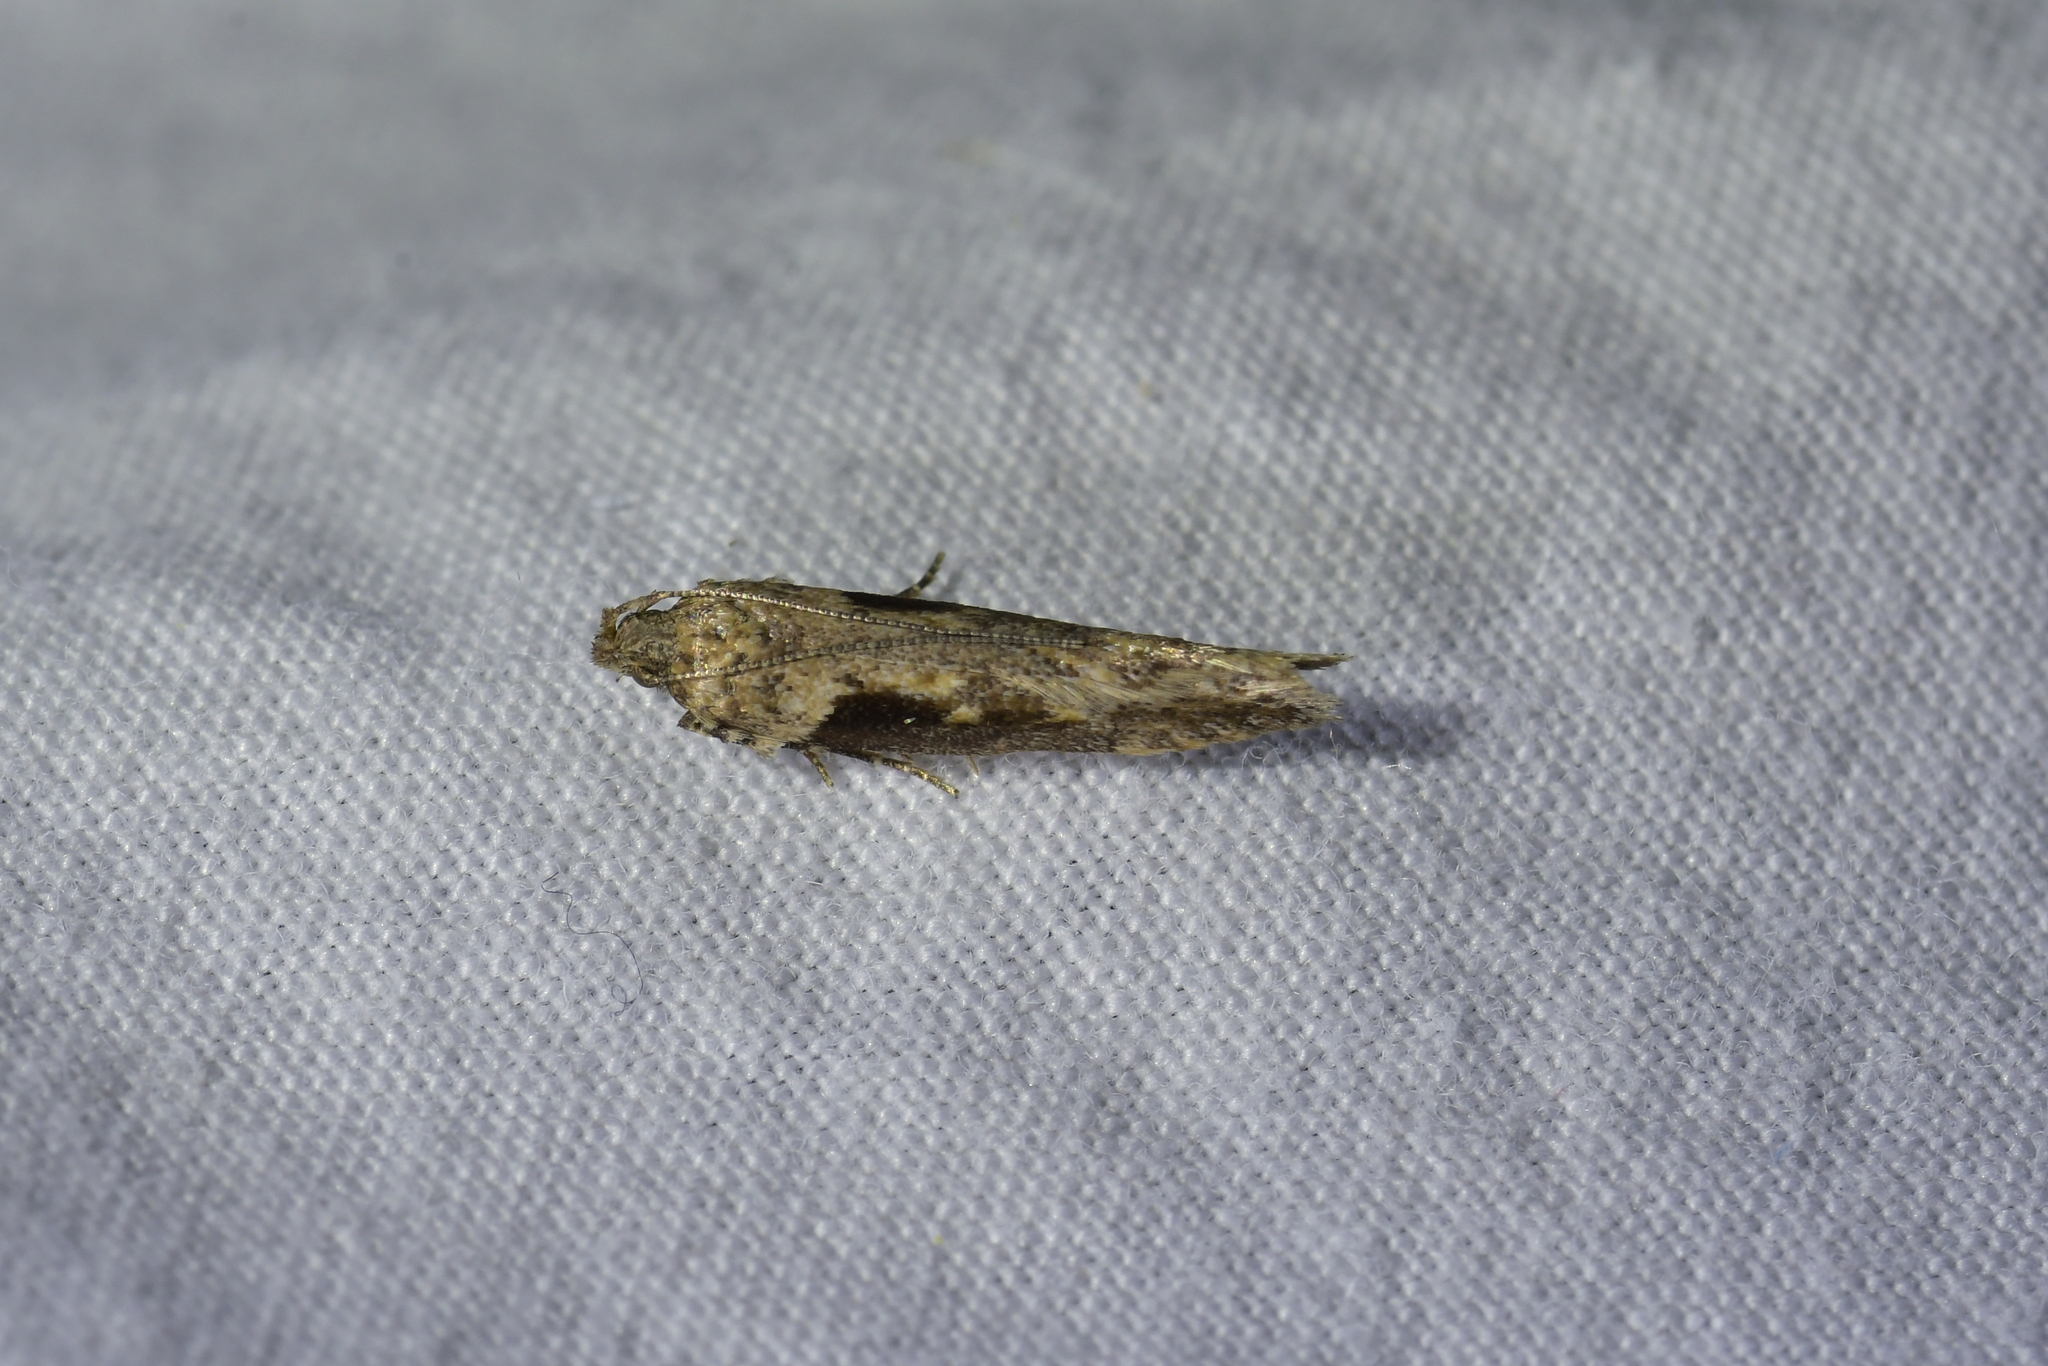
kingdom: Animalia
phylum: Arthropoda
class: Insecta
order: Lepidoptera
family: Gelechiidae
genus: Symmetrischema
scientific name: Symmetrischema tangolias
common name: Moth
